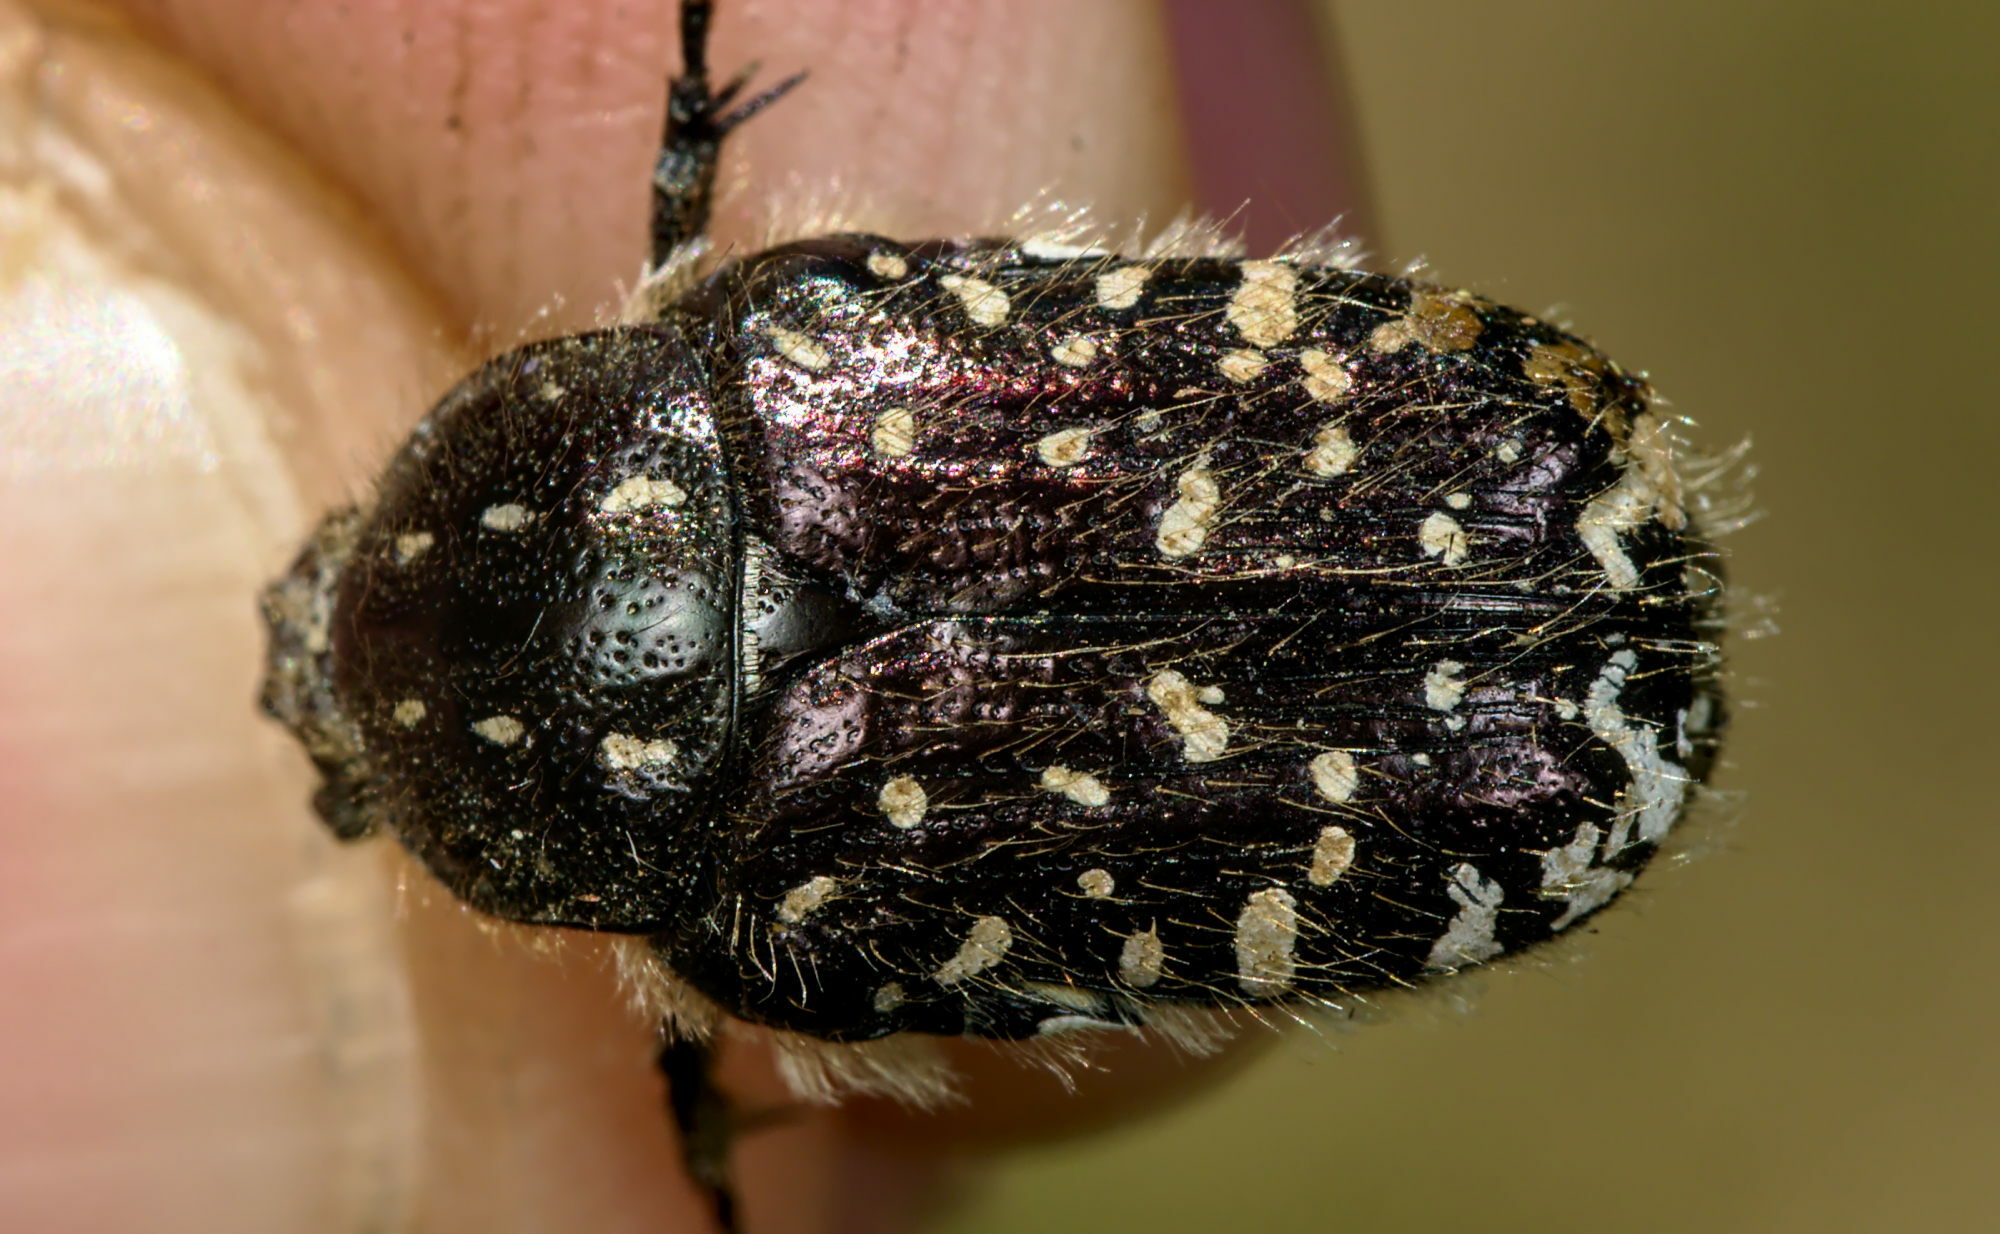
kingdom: Animalia
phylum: Arthropoda
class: Insecta
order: Coleoptera
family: Scarabaeidae
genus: Oxythyrea
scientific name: Oxythyrea funesta
